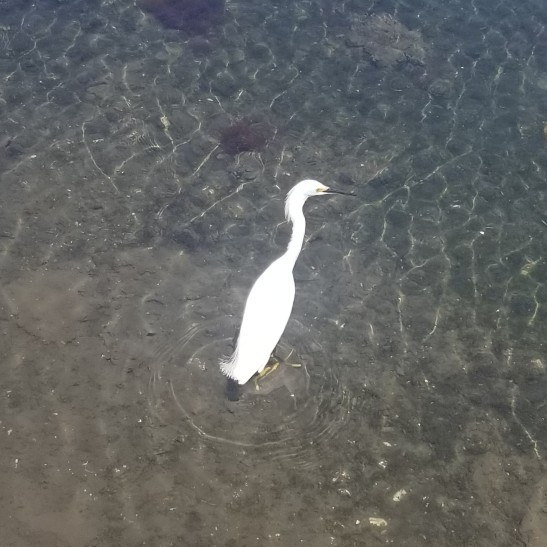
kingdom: Animalia
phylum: Chordata
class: Aves
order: Pelecaniformes
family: Ardeidae
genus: Egretta
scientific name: Egretta thula
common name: Snowy egret
